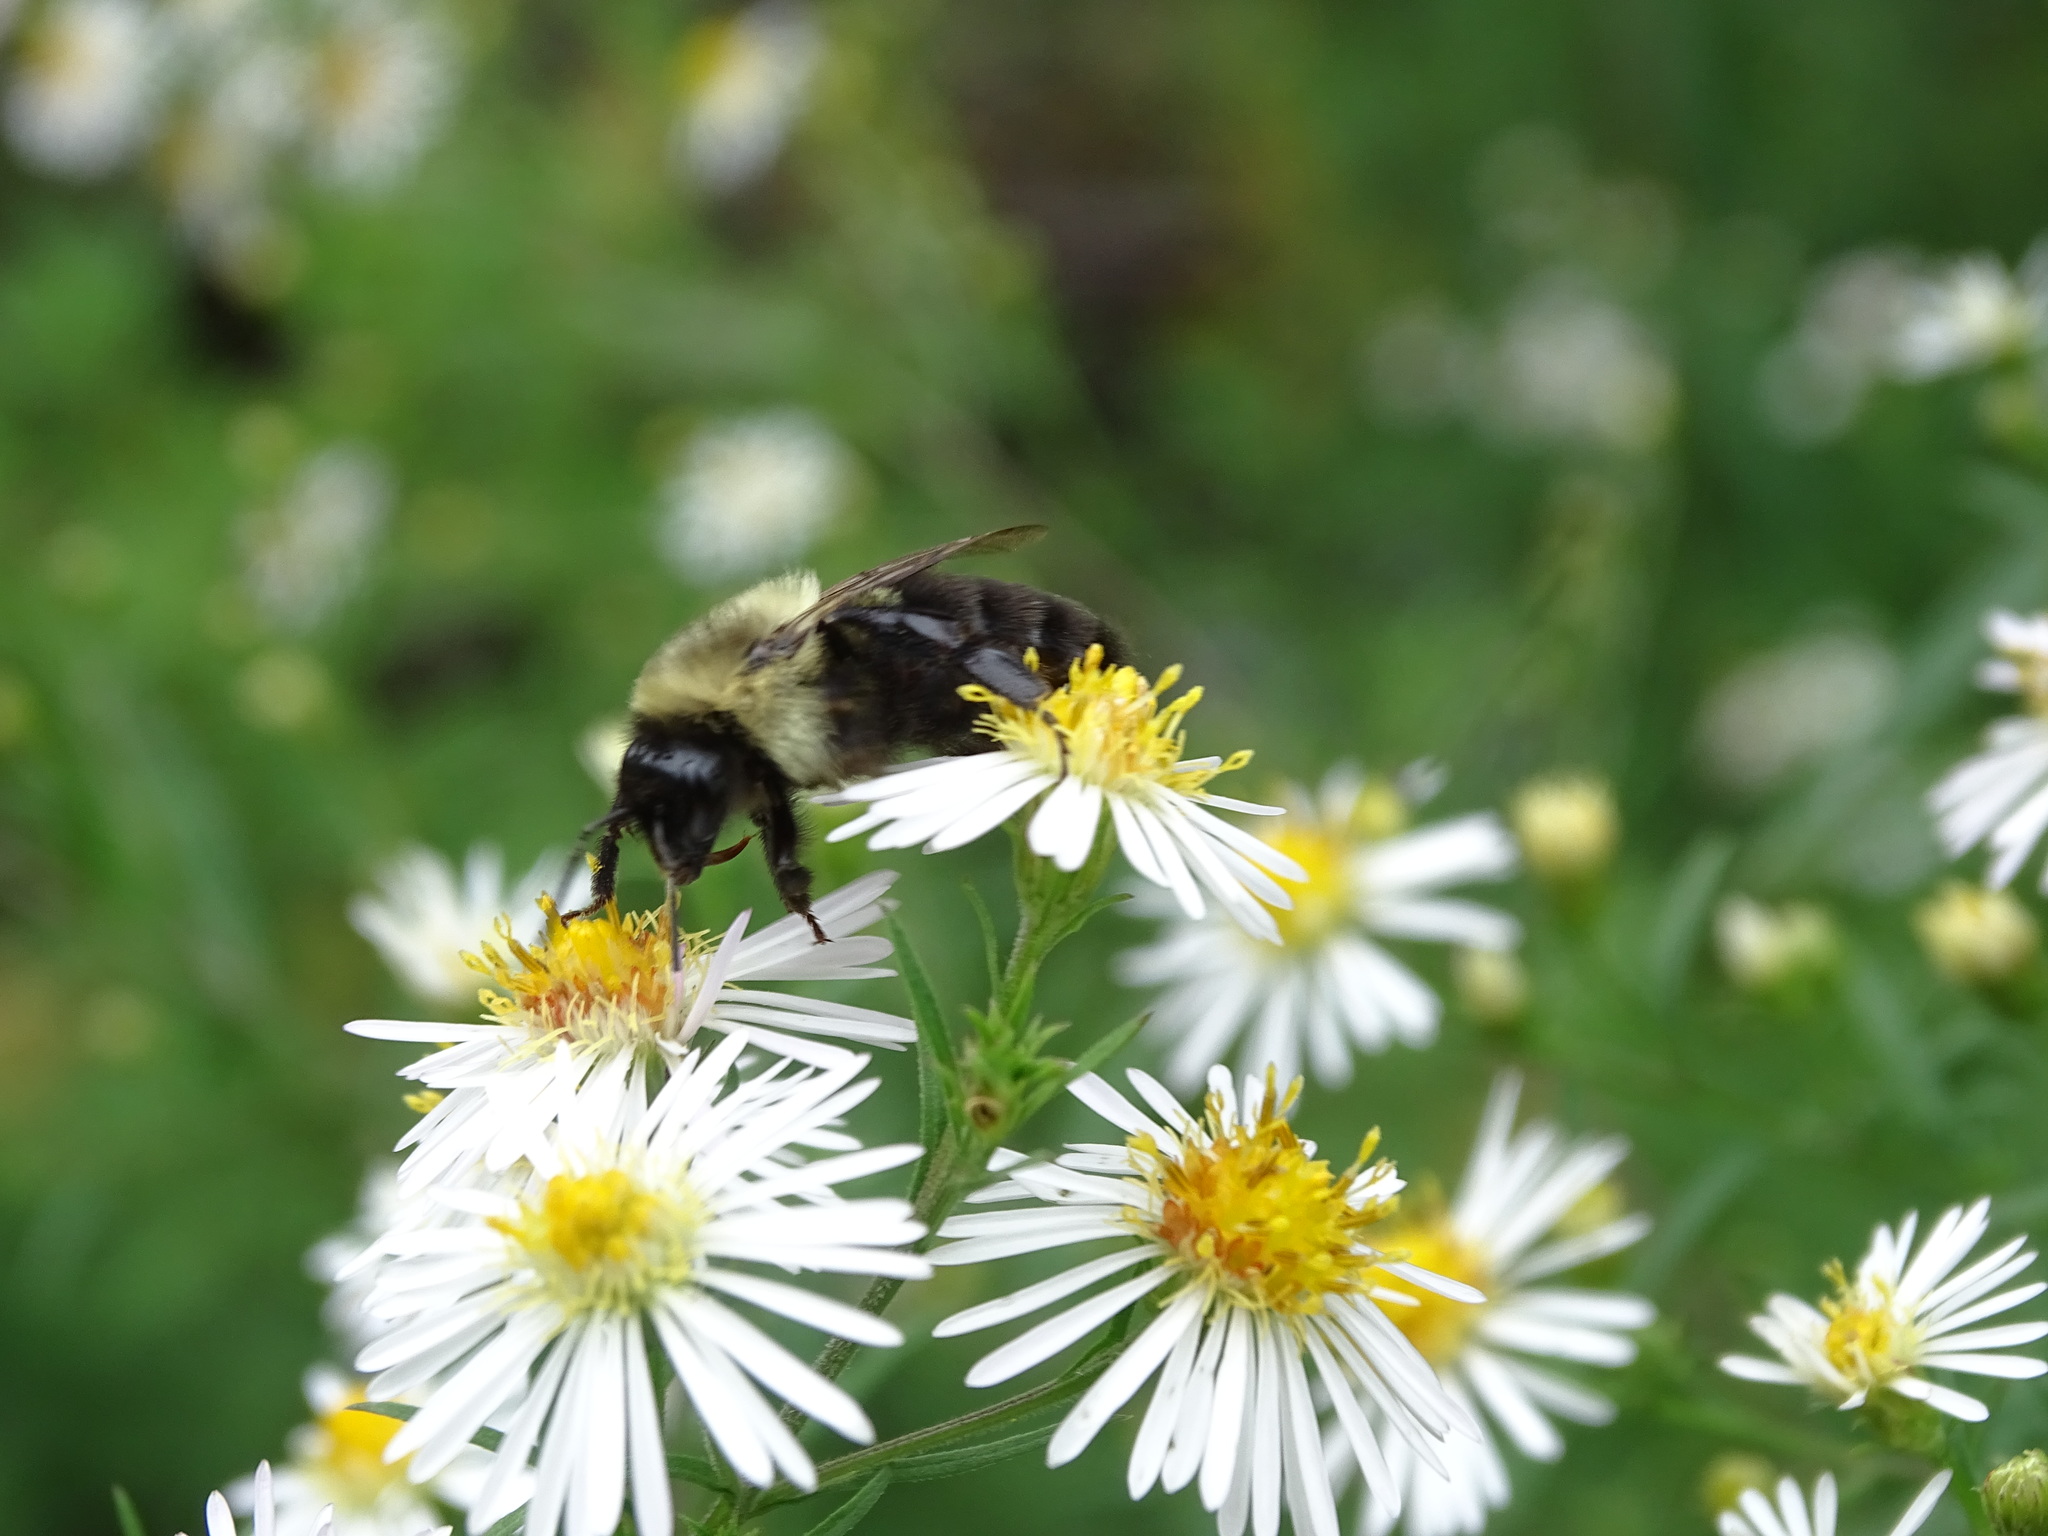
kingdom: Animalia
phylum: Arthropoda
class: Insecta
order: Hymenoptera
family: Apidae
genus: Bombus
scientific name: Bombus impatiens
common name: Common eastern bumble bee
